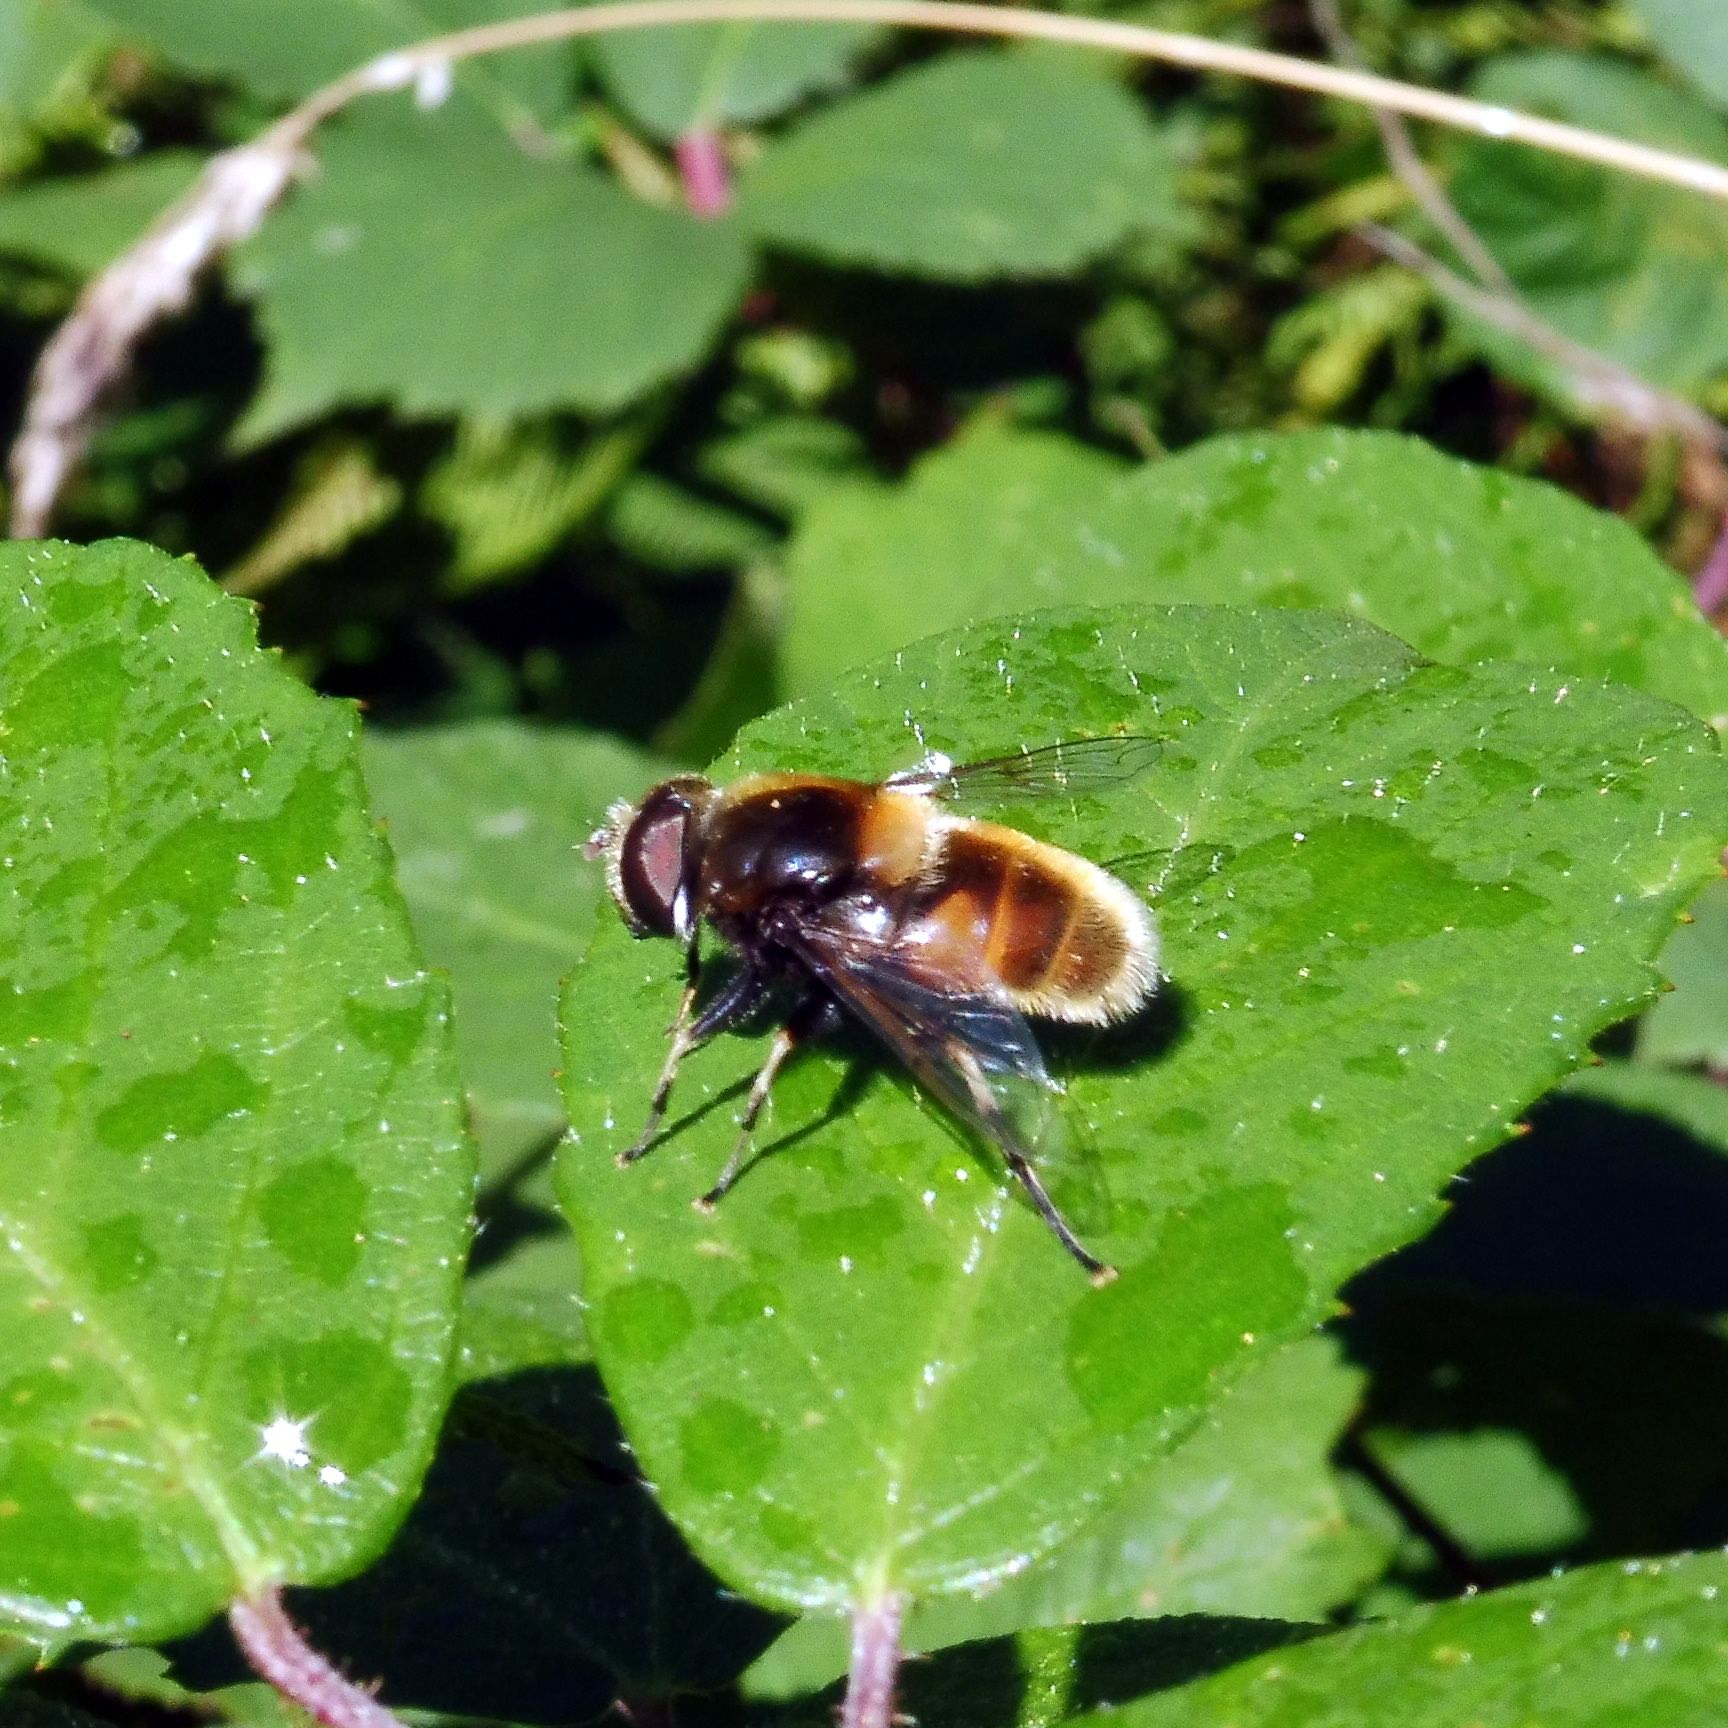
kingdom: Animalia
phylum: Arthropoda
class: Insecta
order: Diptera
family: Syrphidae
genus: Eristalis
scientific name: Eristalis intricaria
